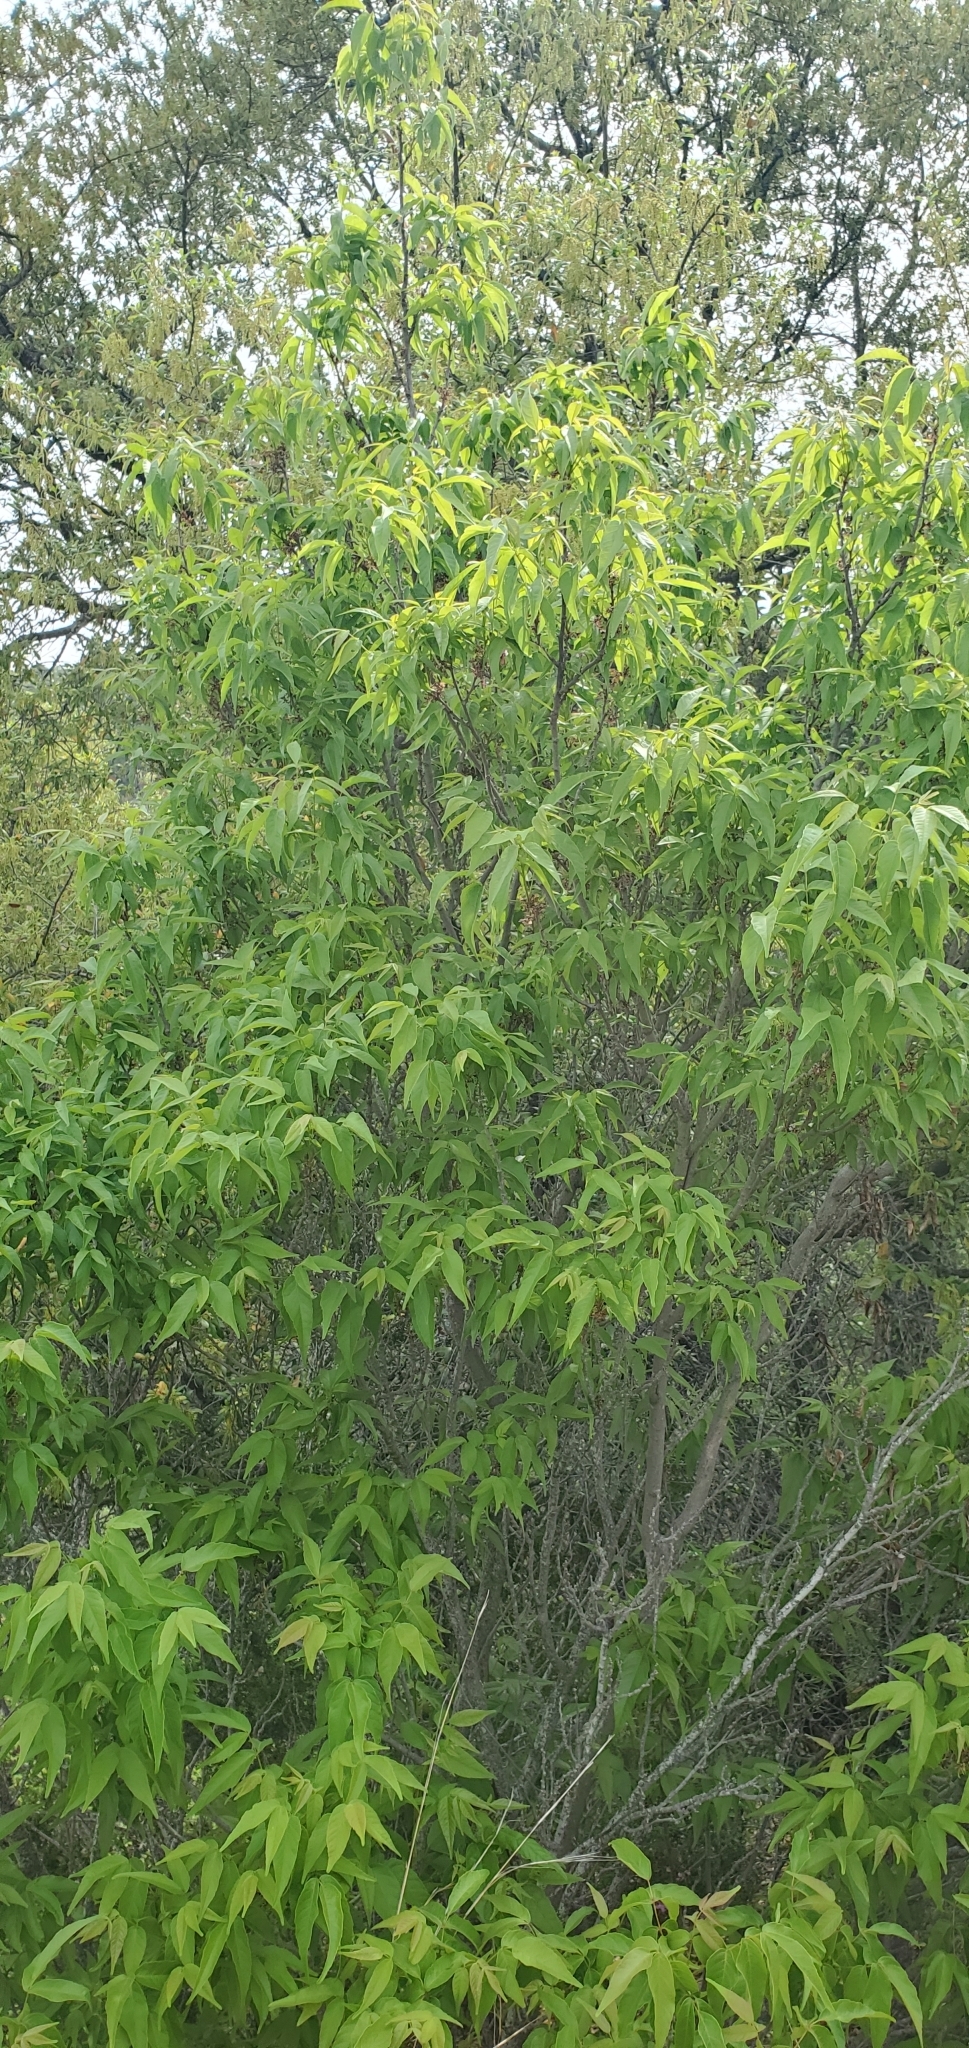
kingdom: Plantae
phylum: Tracheophyta
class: Magnoliopsida
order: Sapindales
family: Sapindaceae
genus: Ungnadia
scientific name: Ungnadia speciosa
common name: Texas-buckeye
